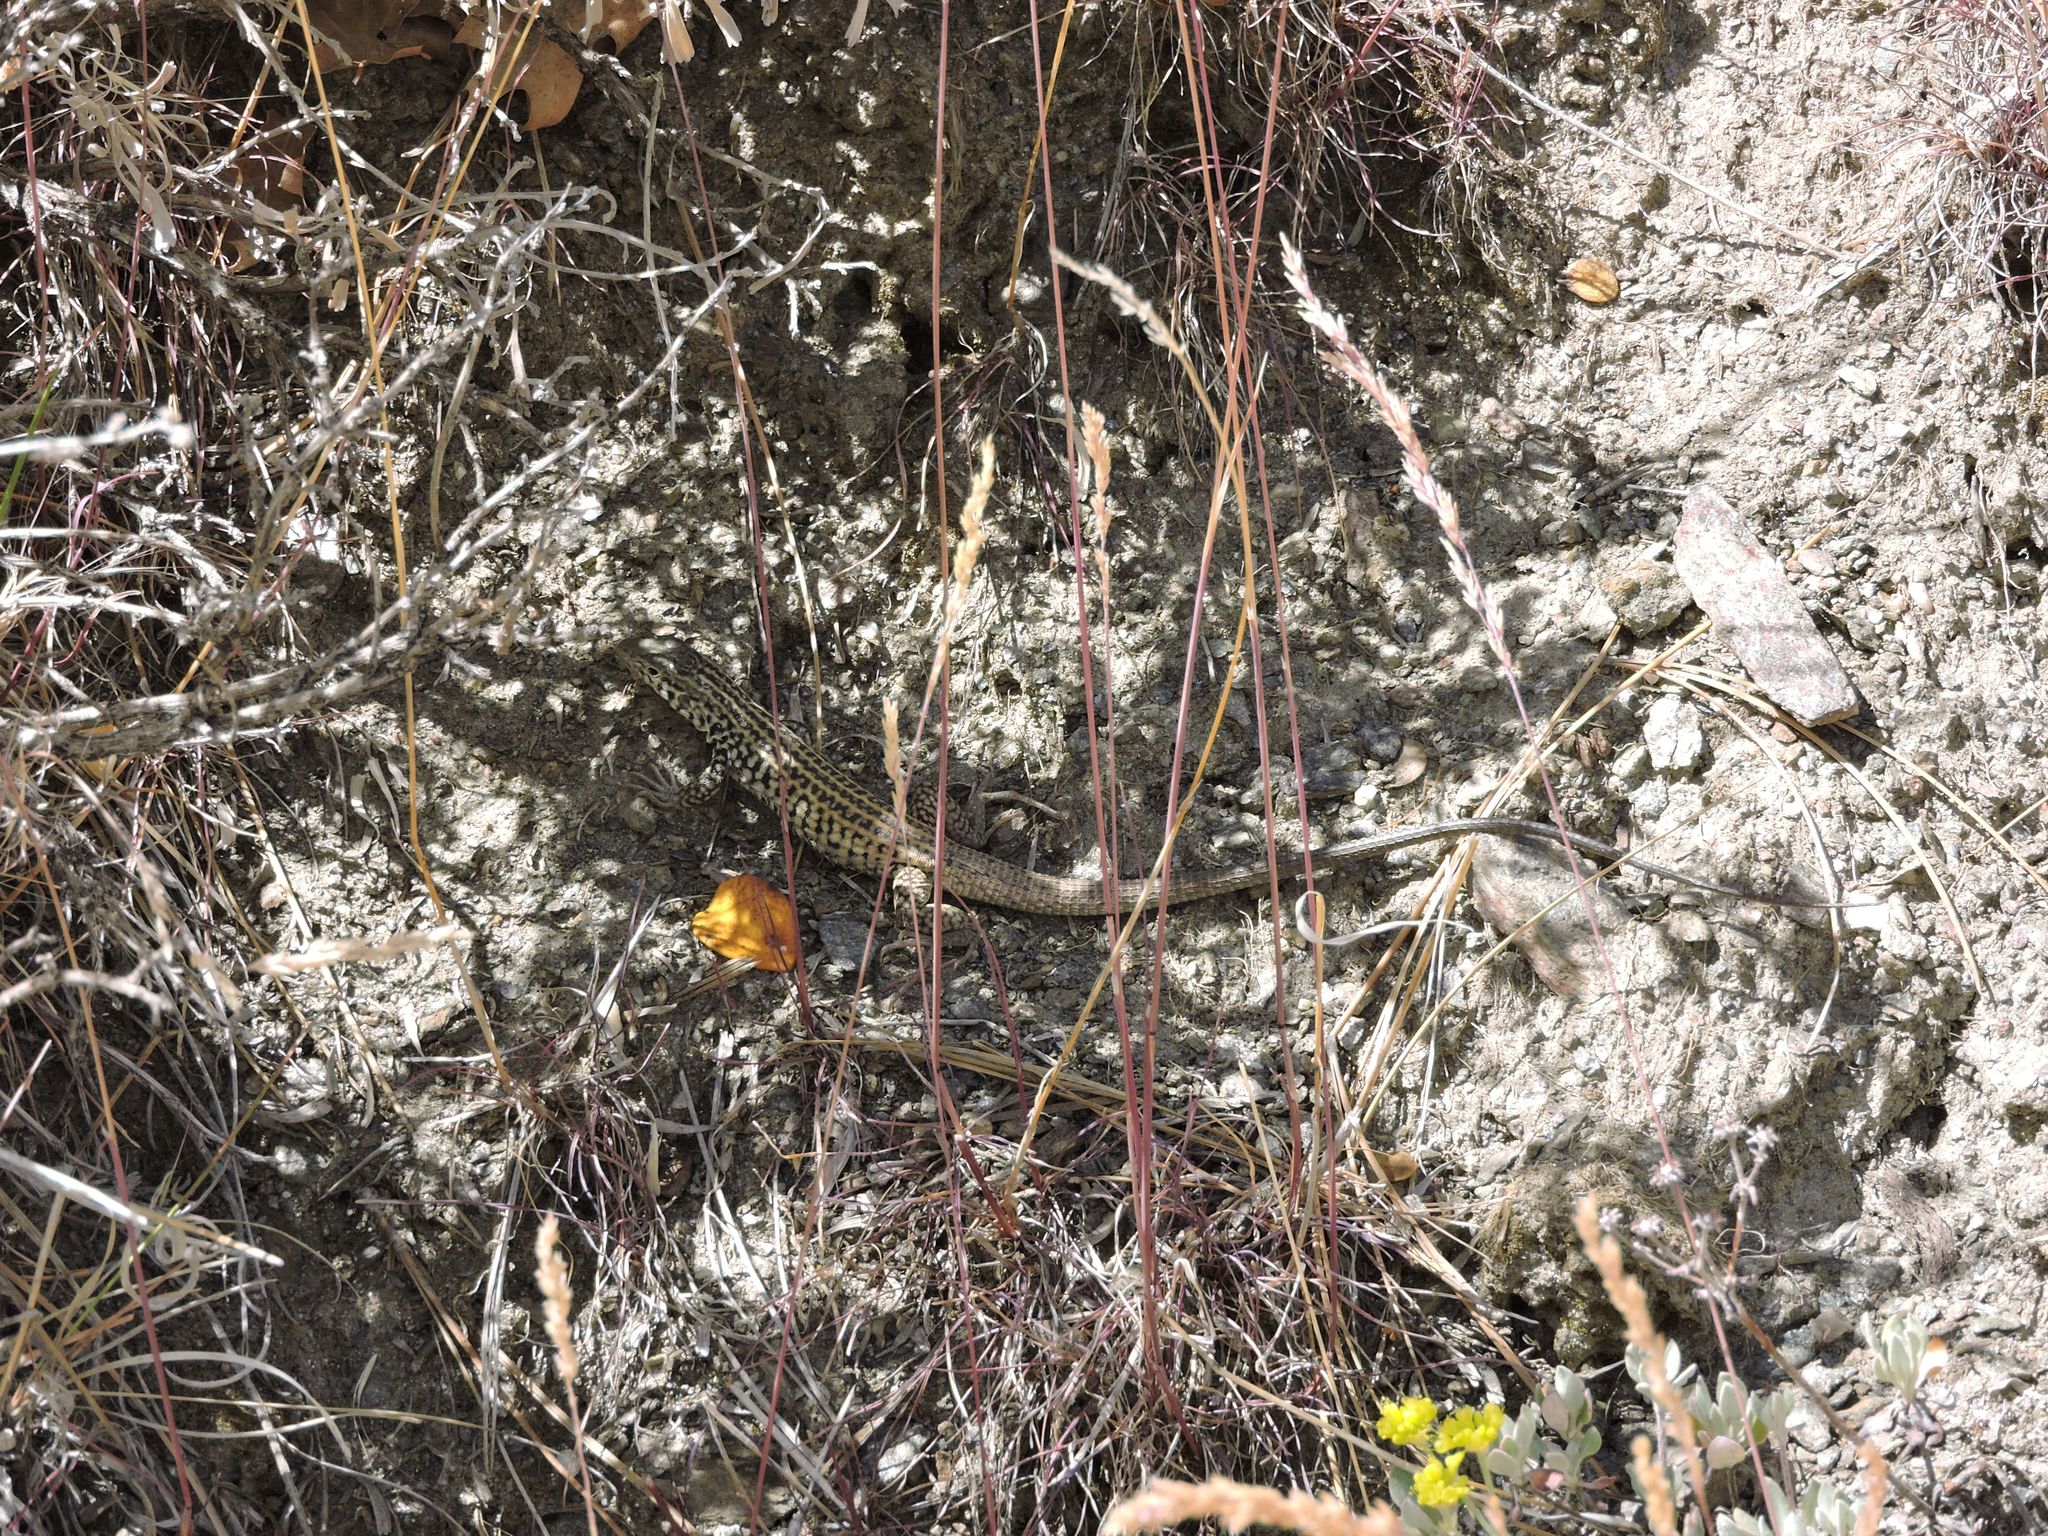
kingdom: Animalia
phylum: Chordata
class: Squamata
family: Teiidae
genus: Aspidoscelis
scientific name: Aspidoscelis tigris
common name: Tiger whiptail
